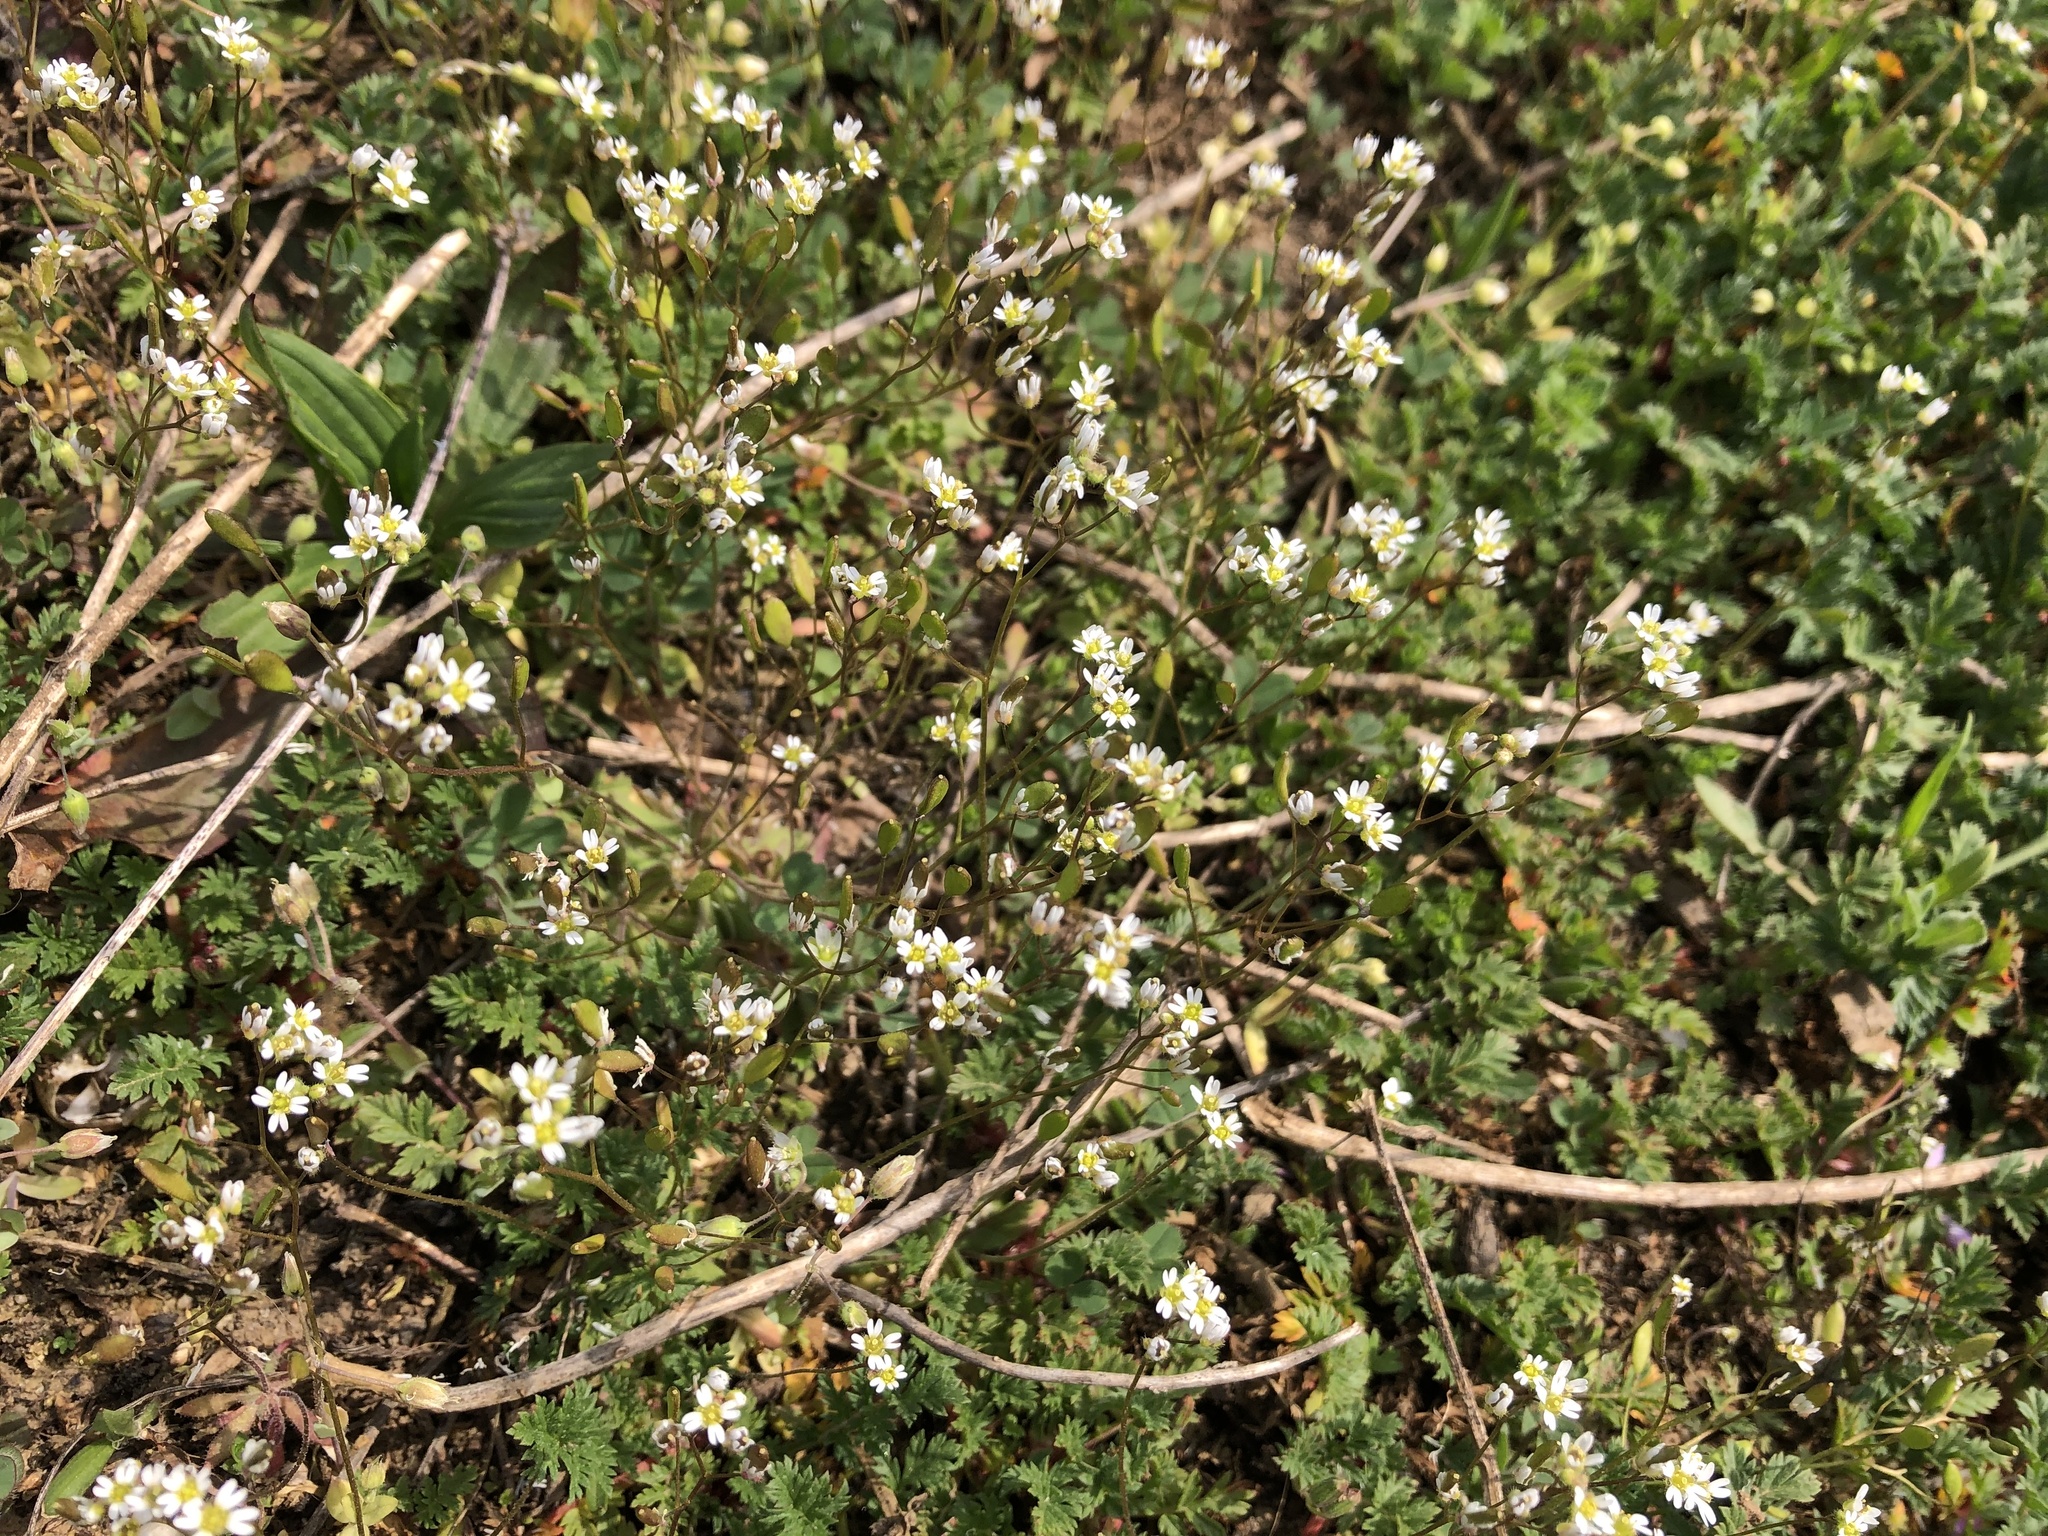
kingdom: Plantae
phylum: Tracheophyta
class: Magnoliopsida
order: Brassicales
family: Brassicaceae
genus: Draba
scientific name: Draba verna
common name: Spring draba
